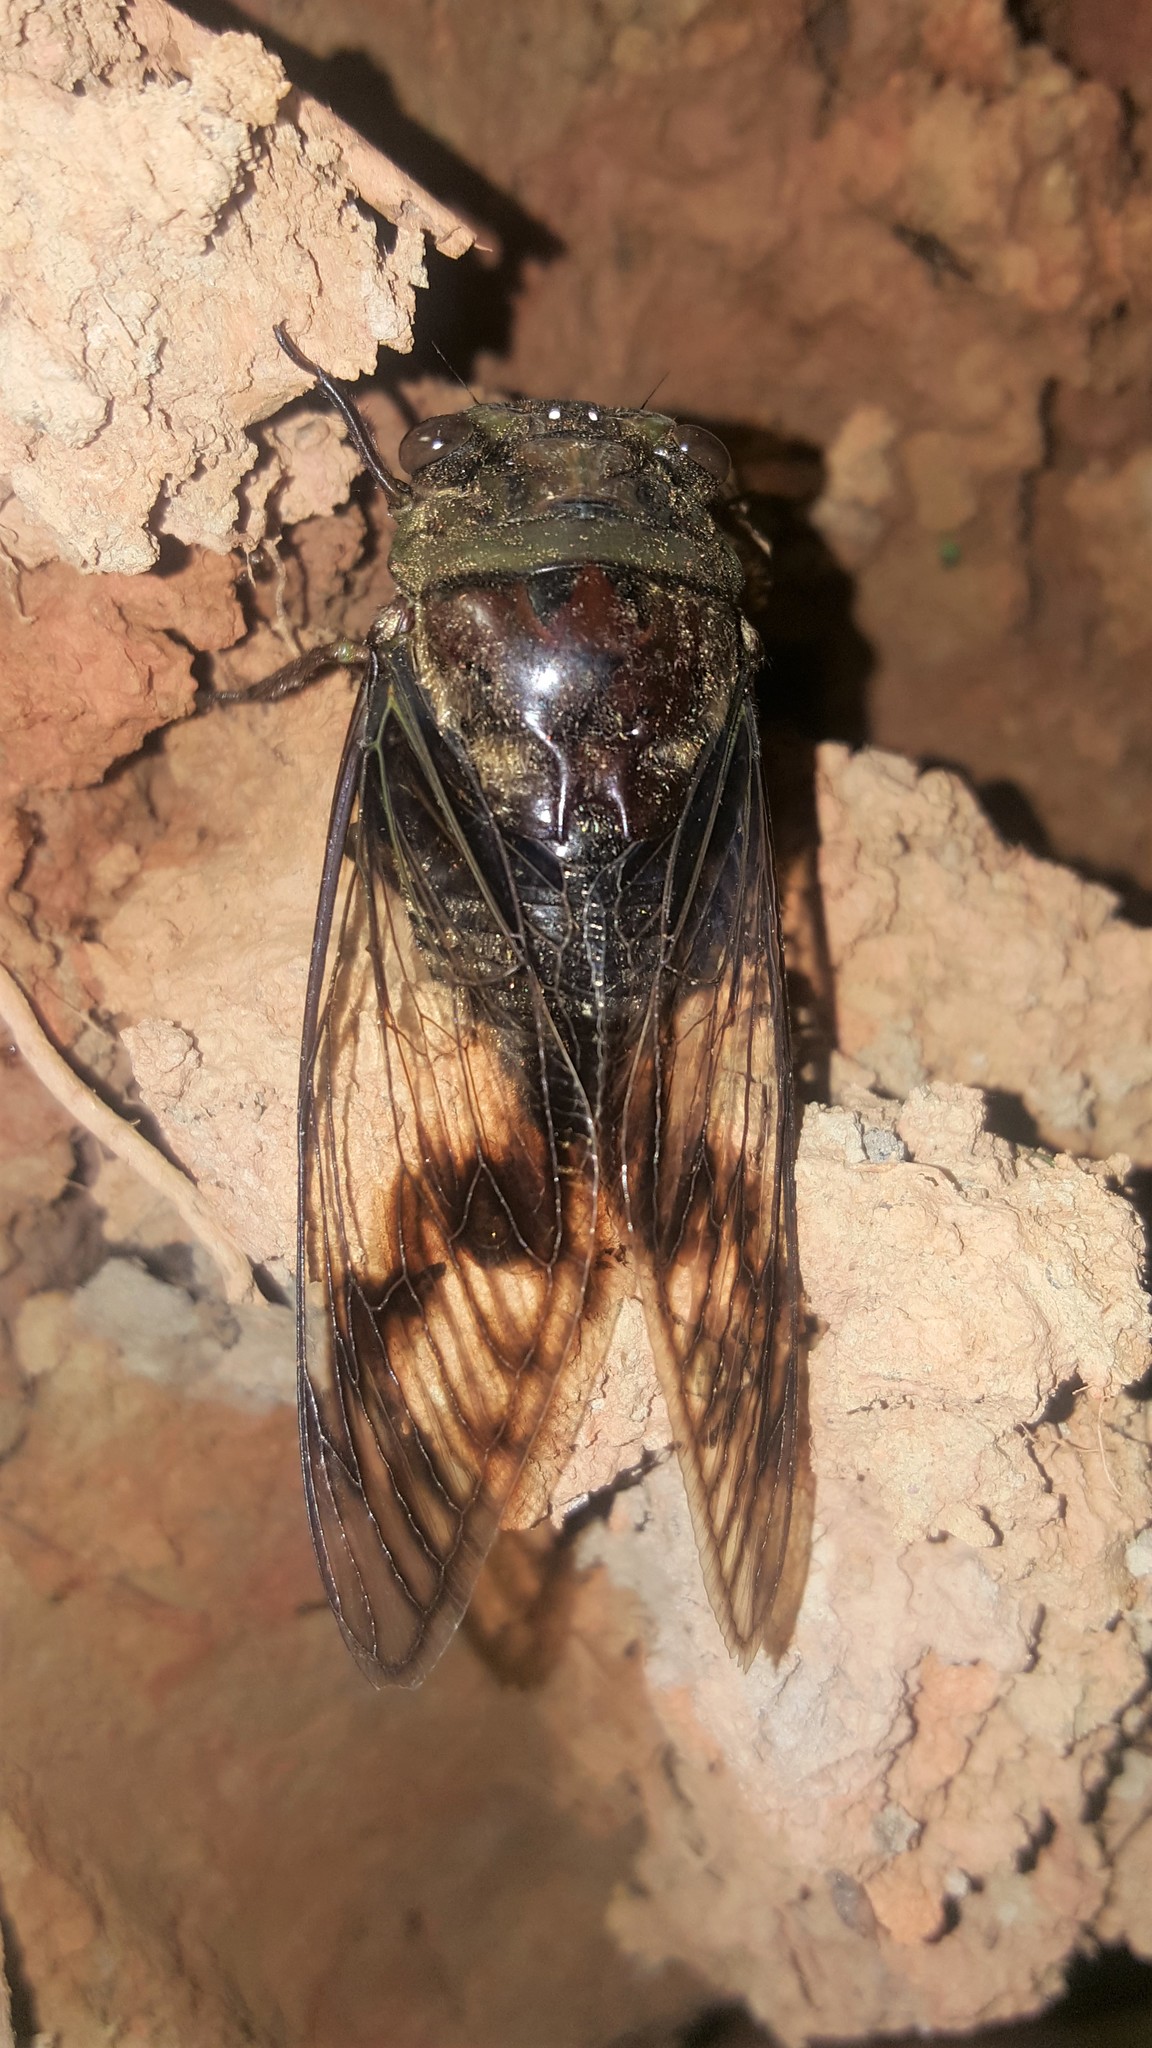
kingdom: Animalia
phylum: Arthropoda
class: Insecta
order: Hemiptera
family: Cicadidae
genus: Fidicina
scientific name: Fidicina mannifera
